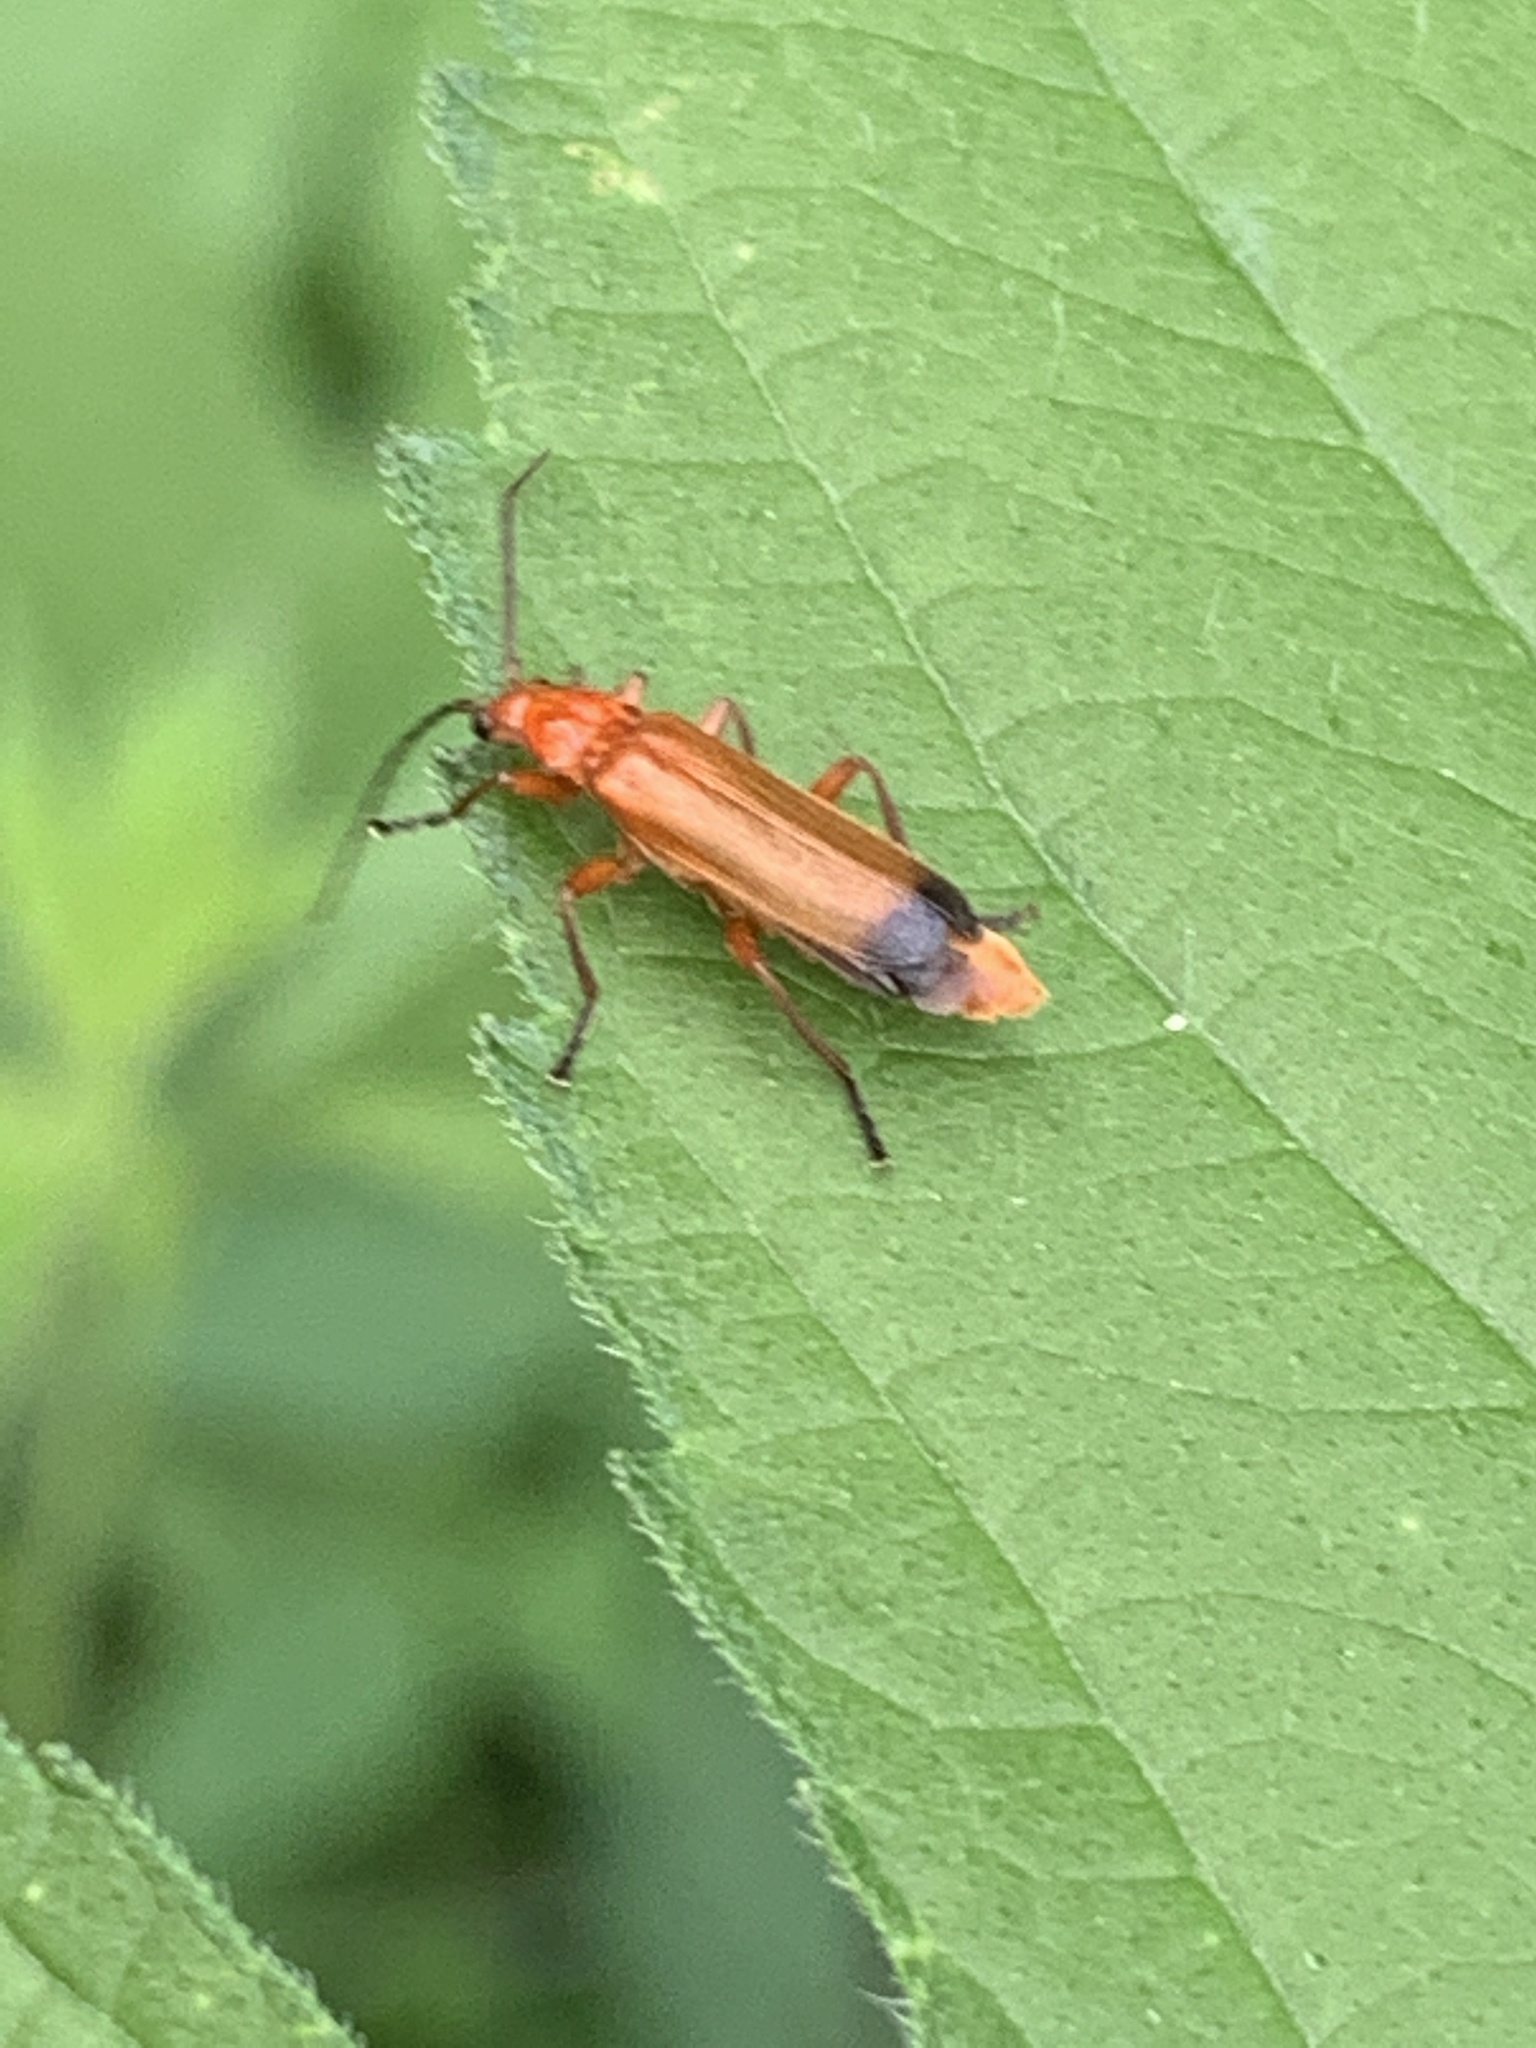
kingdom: Animalia
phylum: Arthropoda
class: Insecta
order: Coleoptera
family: Cantharidae
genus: Rhagonycha
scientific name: Rhagonycha fulva
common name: Common red soldier beetle
